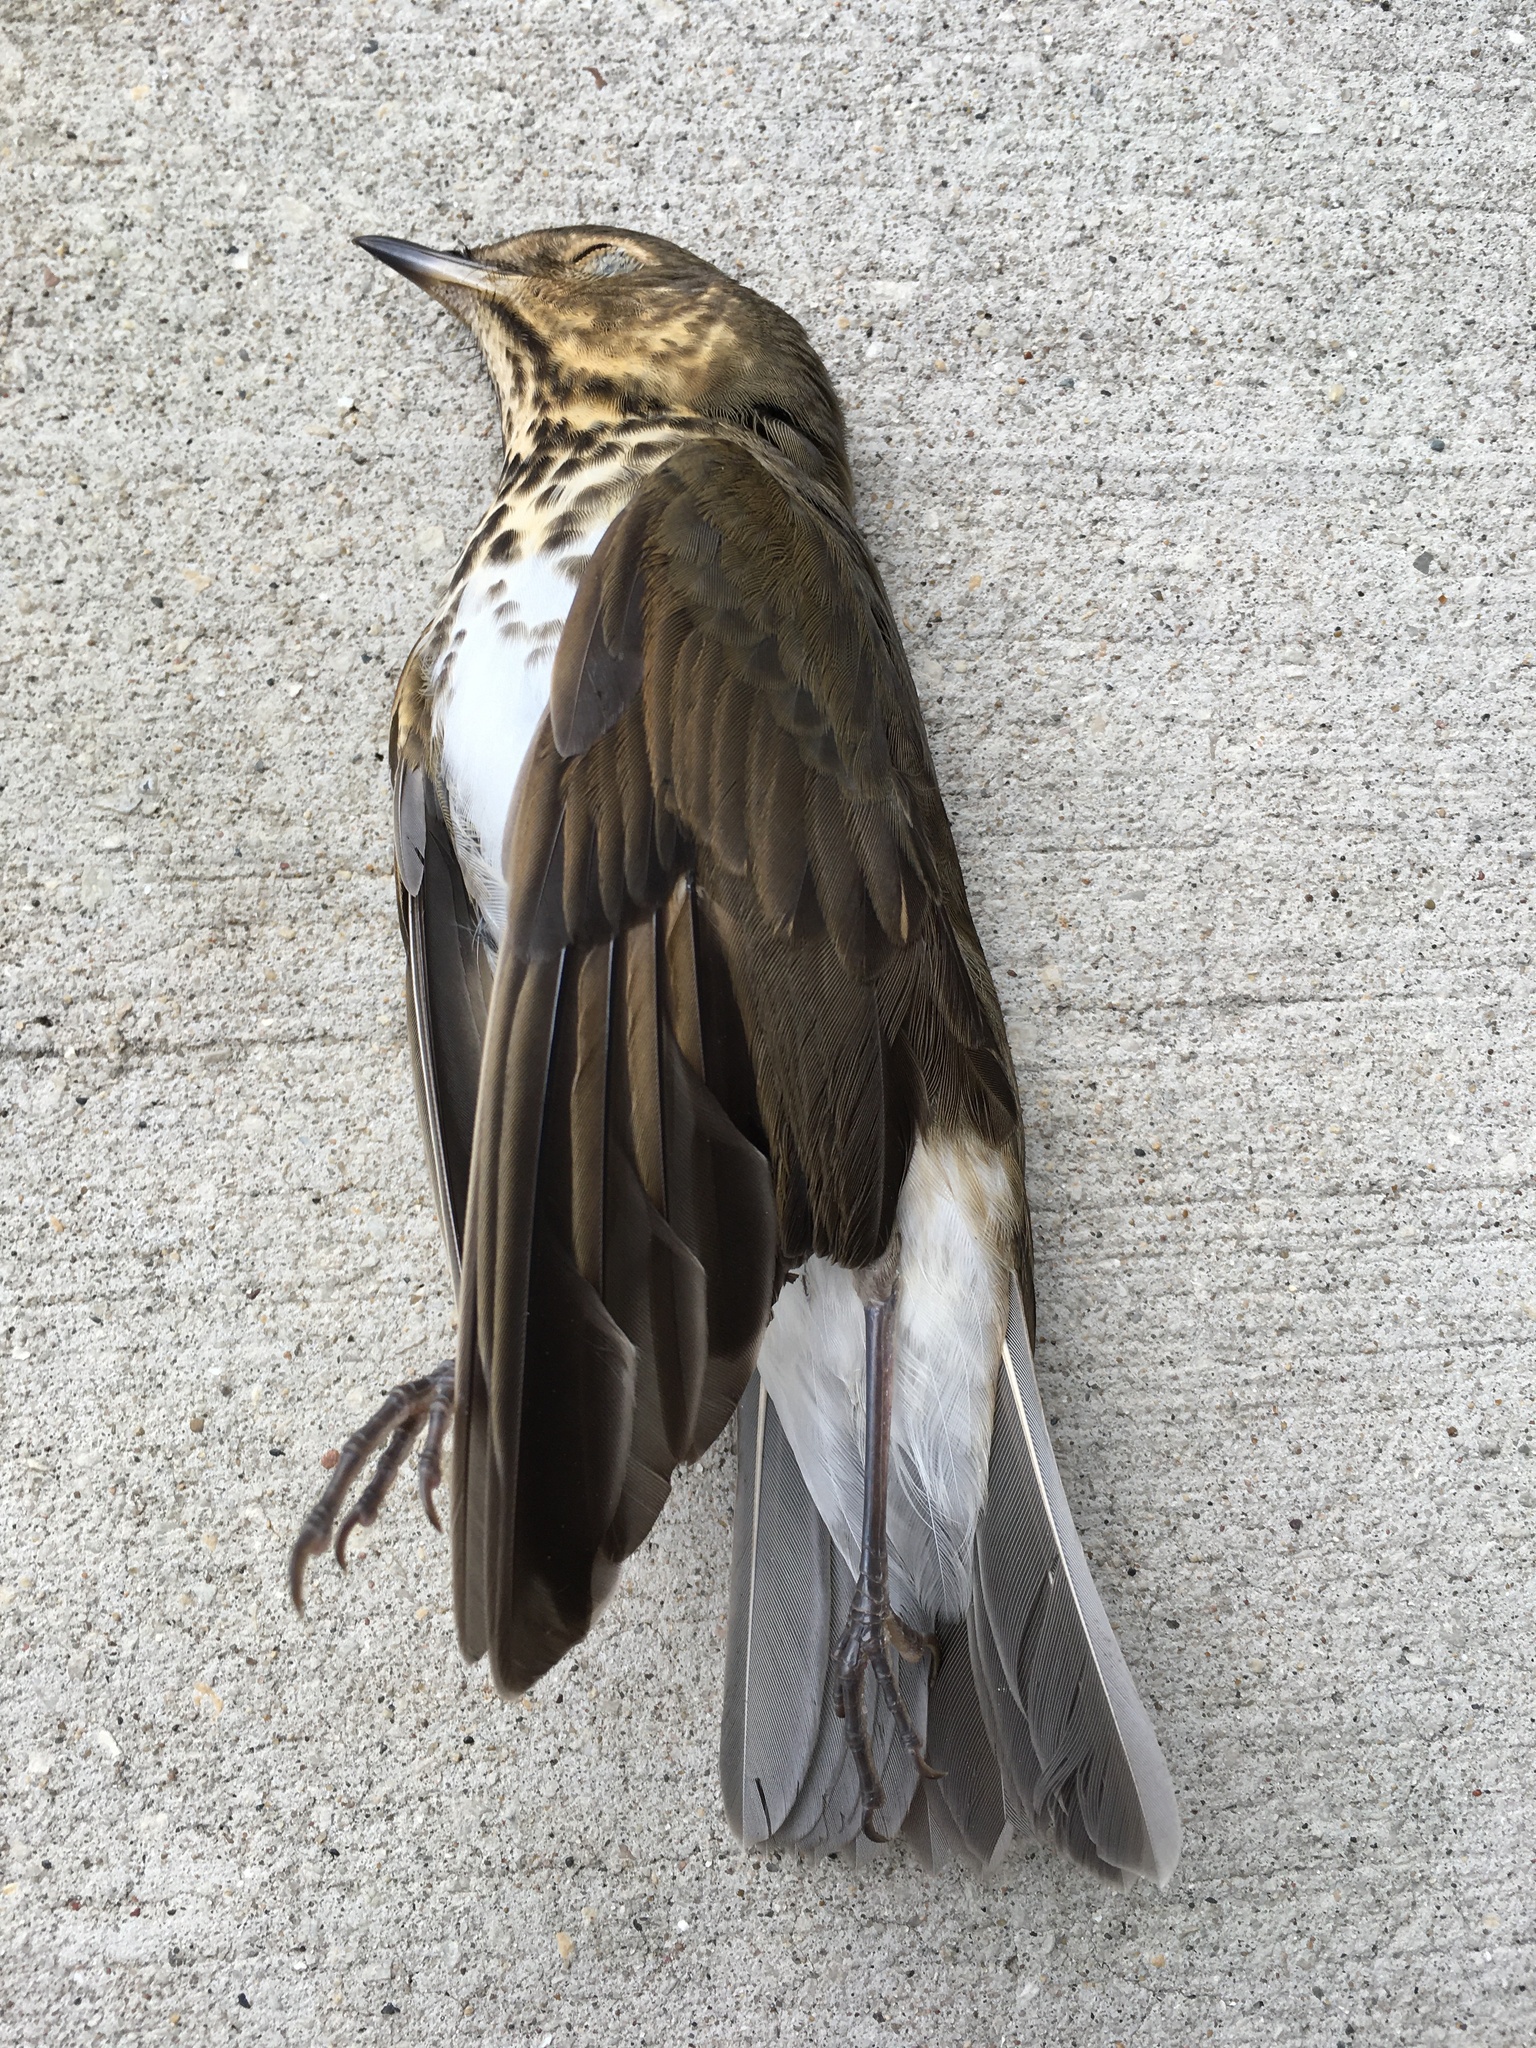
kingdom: Animalia
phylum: Chordata
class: Aves
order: Passeriformes
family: Turdidae
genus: Catharus
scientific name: Catharus ustulatus
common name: Swainson's thrush
